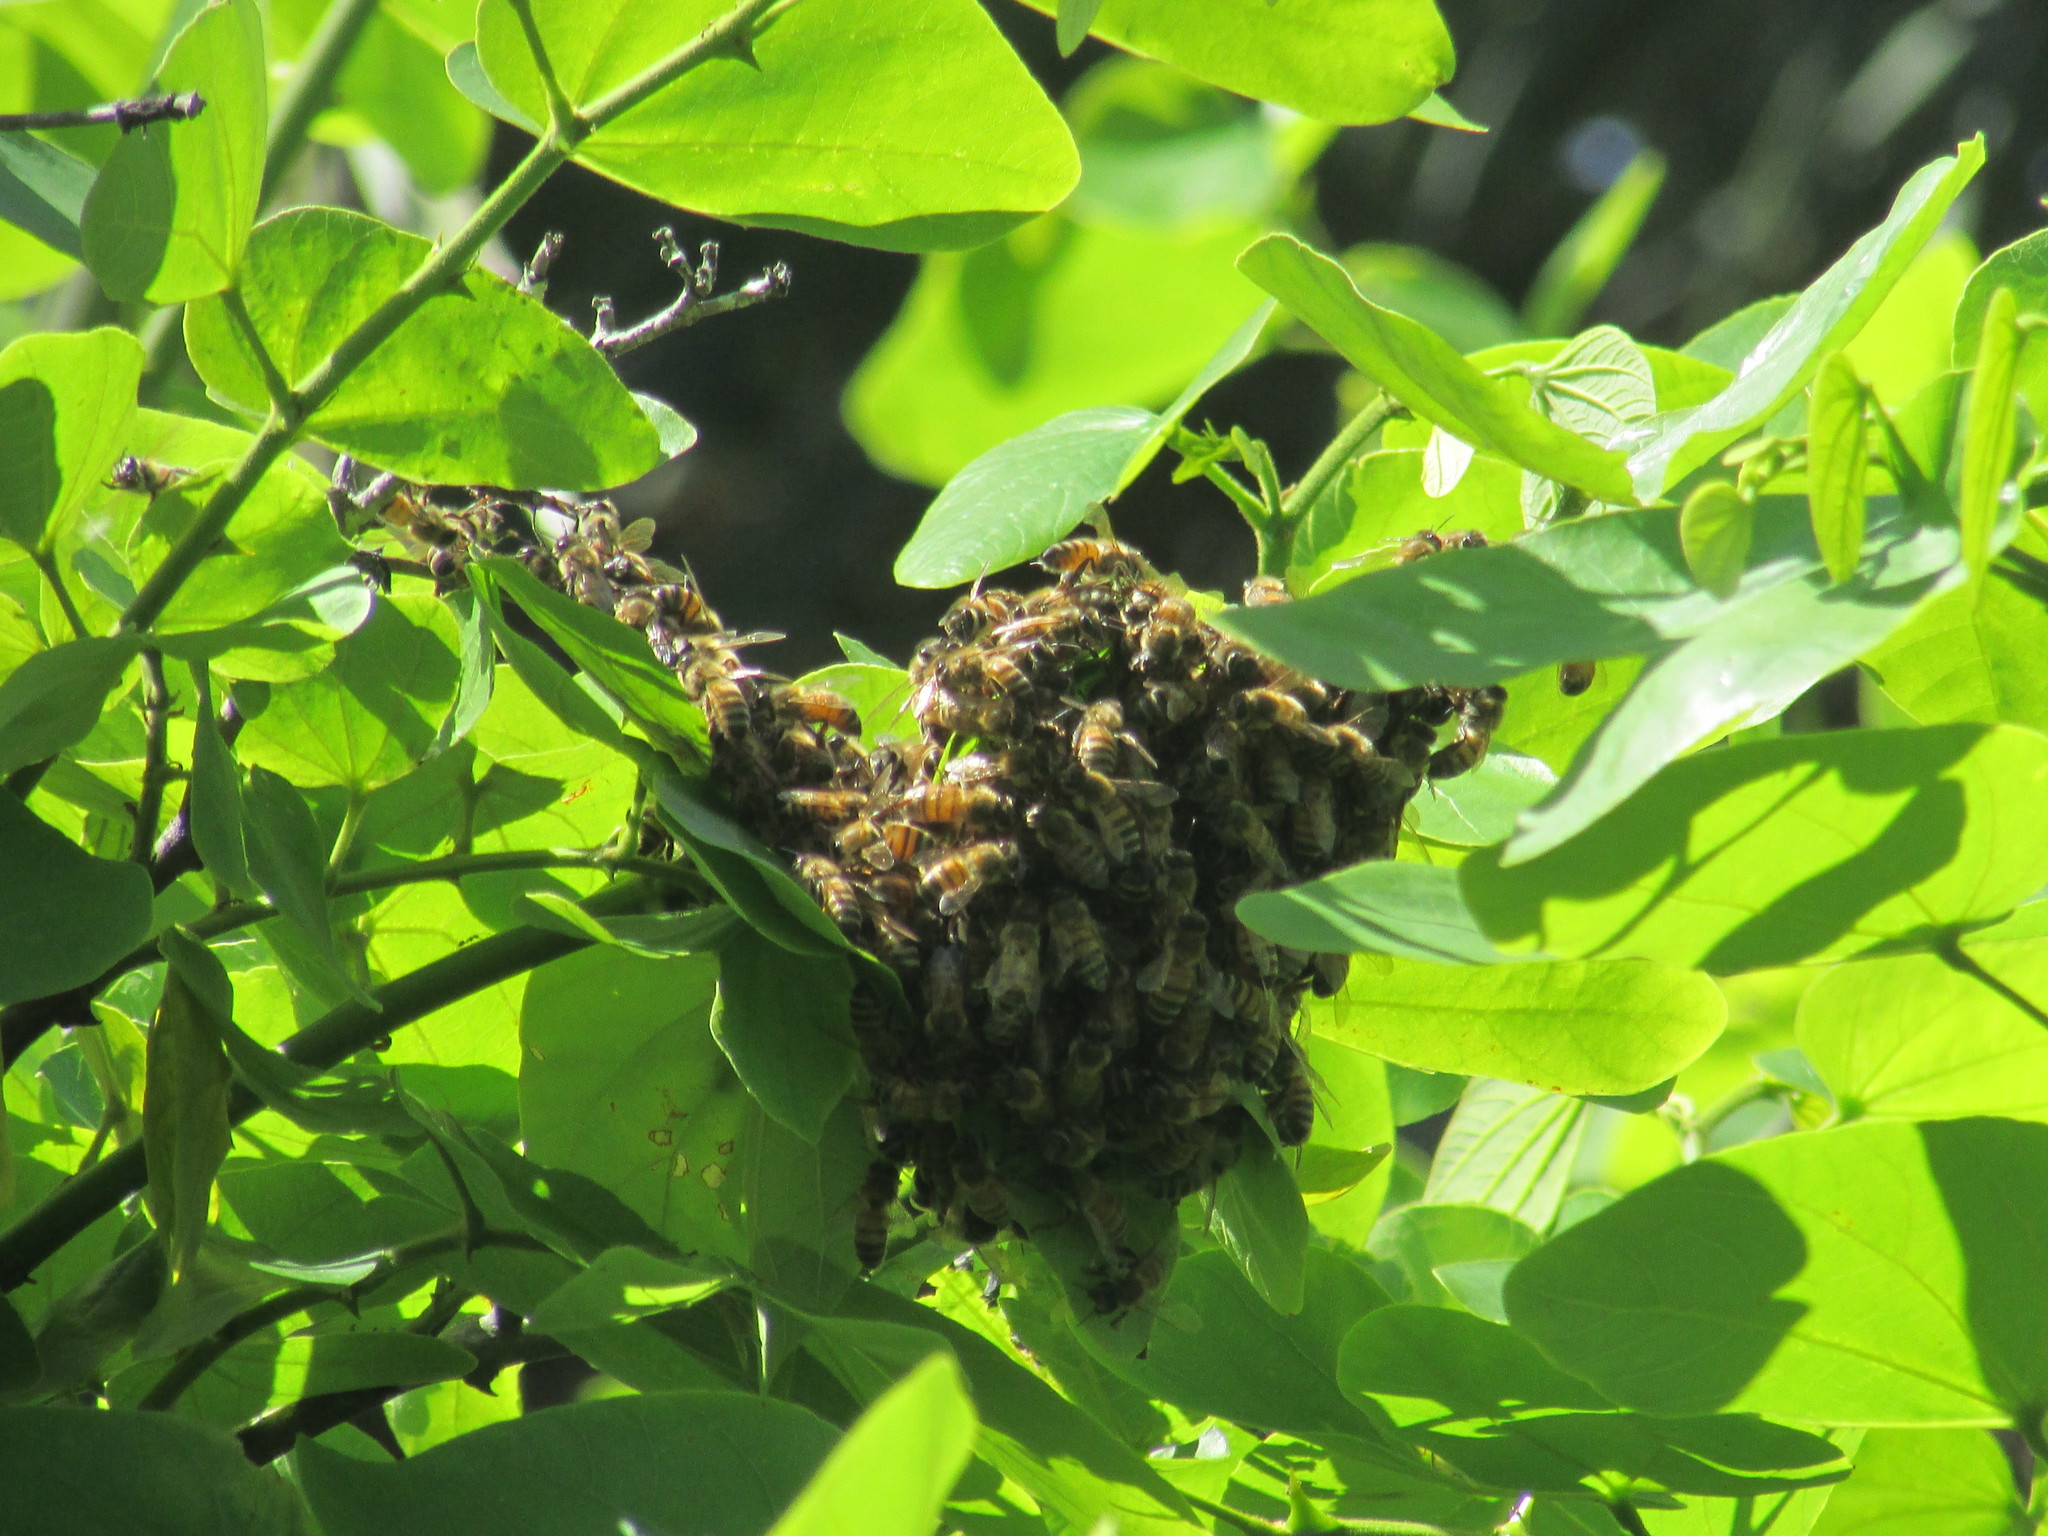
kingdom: Animalia
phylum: Arthropoda
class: Insecta
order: Hymenoptera
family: Apidae
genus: Apis
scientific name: Apis mellifera
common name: Honey bee
